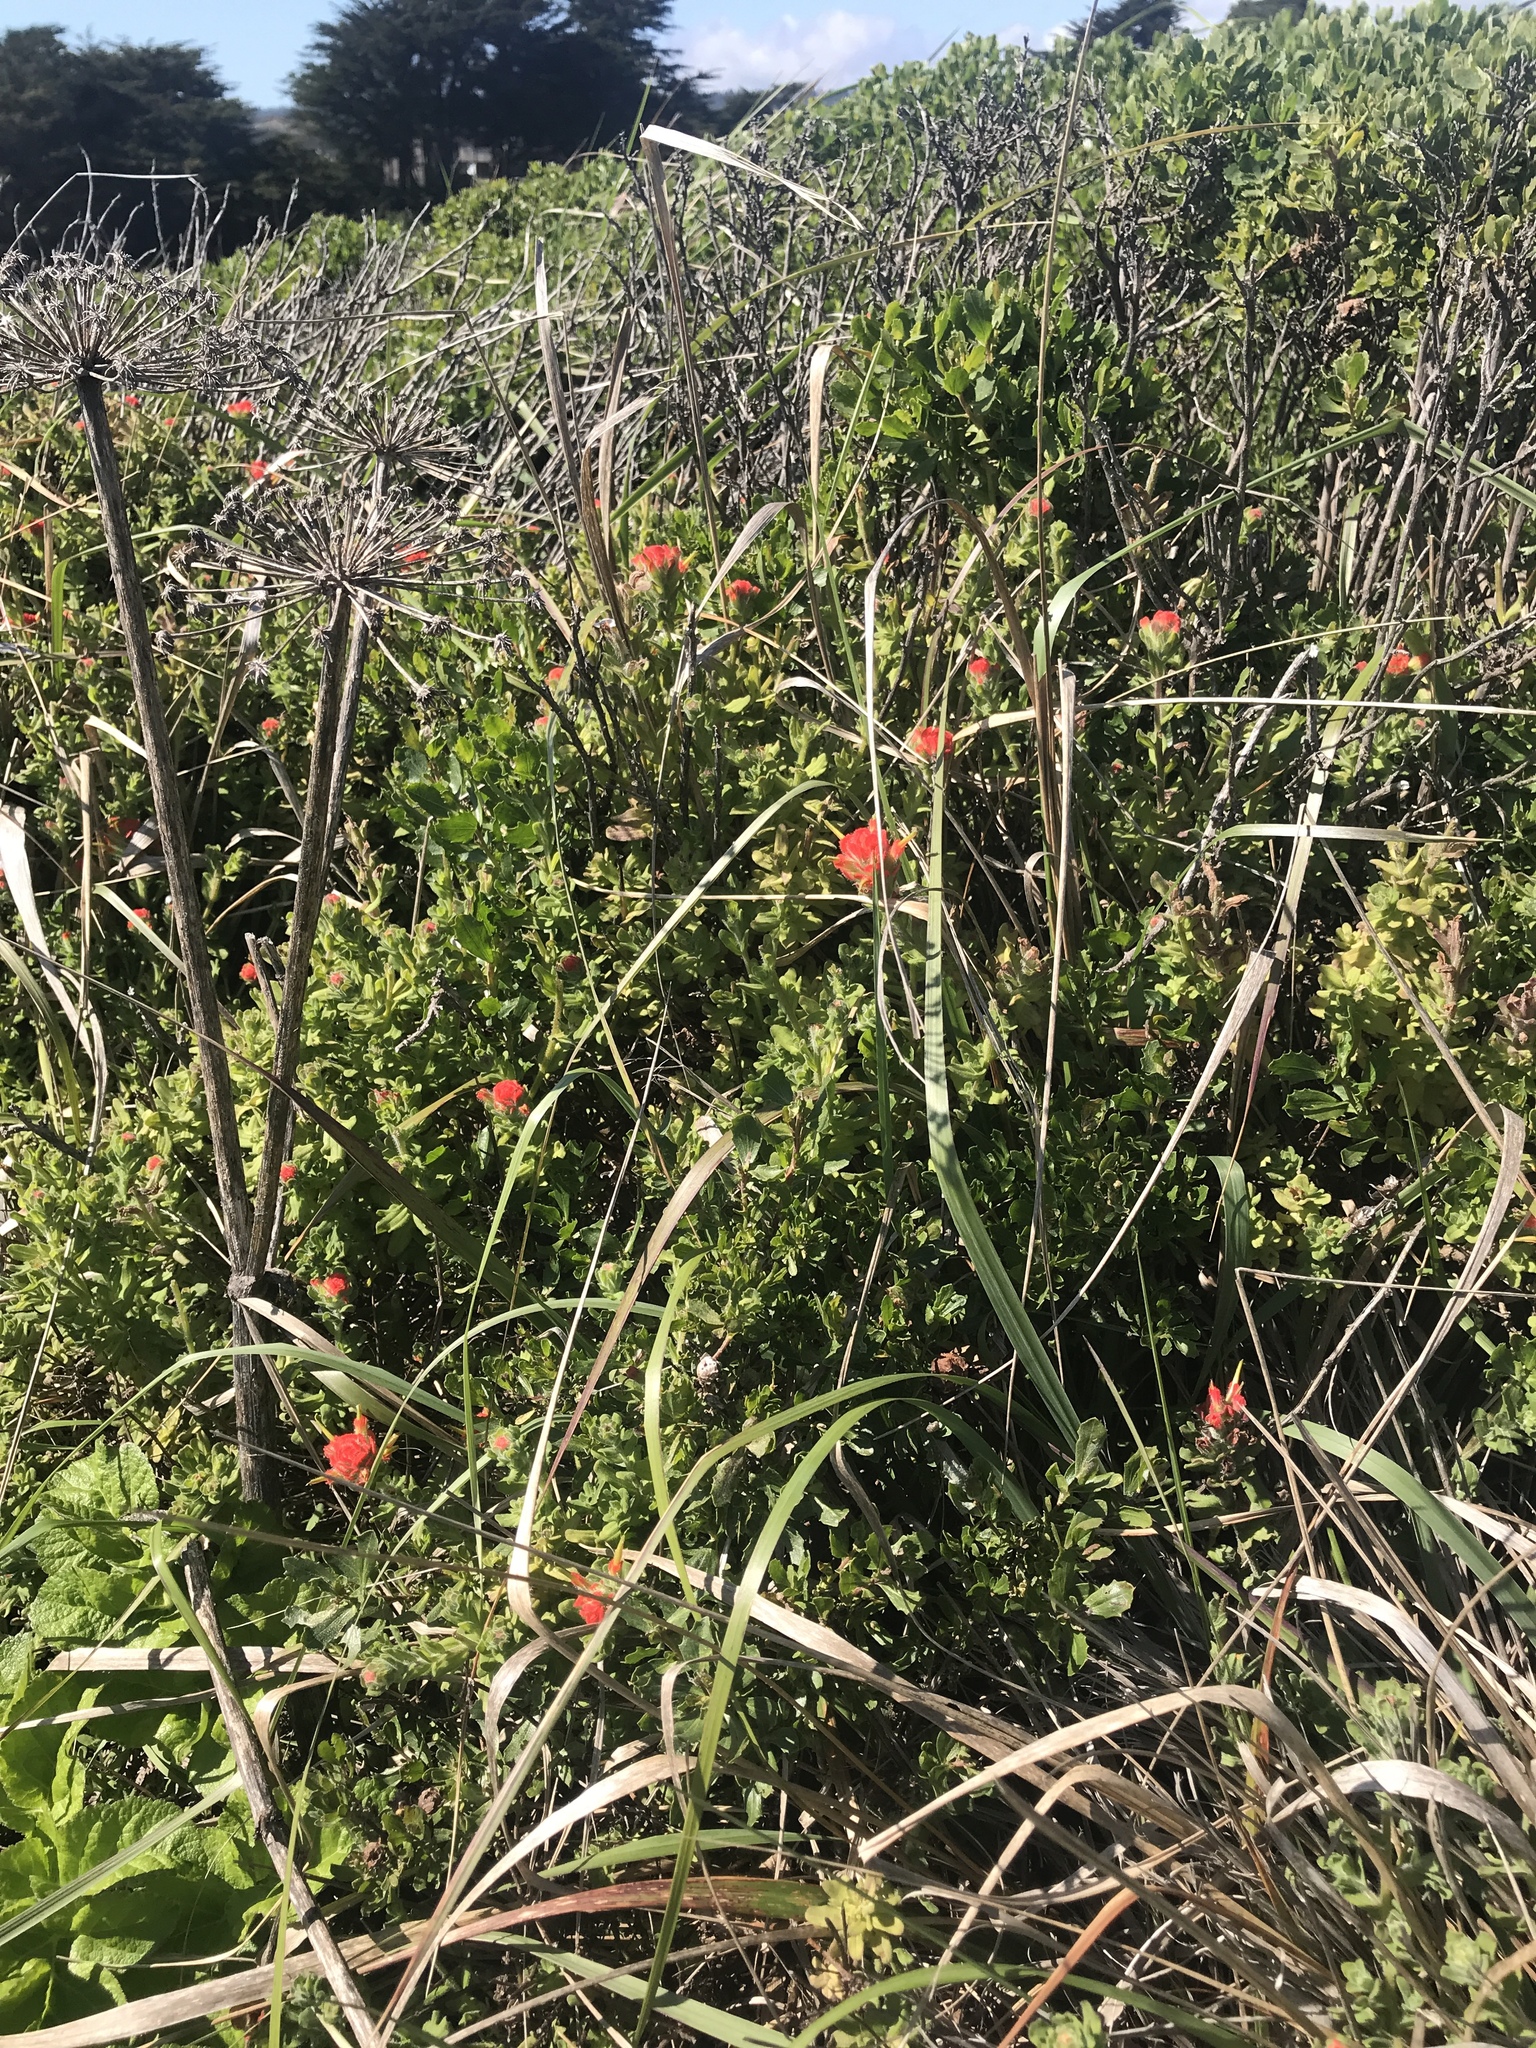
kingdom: Plantae
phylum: Tracheophyta
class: Magnoliopsida
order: Lamiales
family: Orobanchaceae
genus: Castilleja
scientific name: Castilleja wightii
